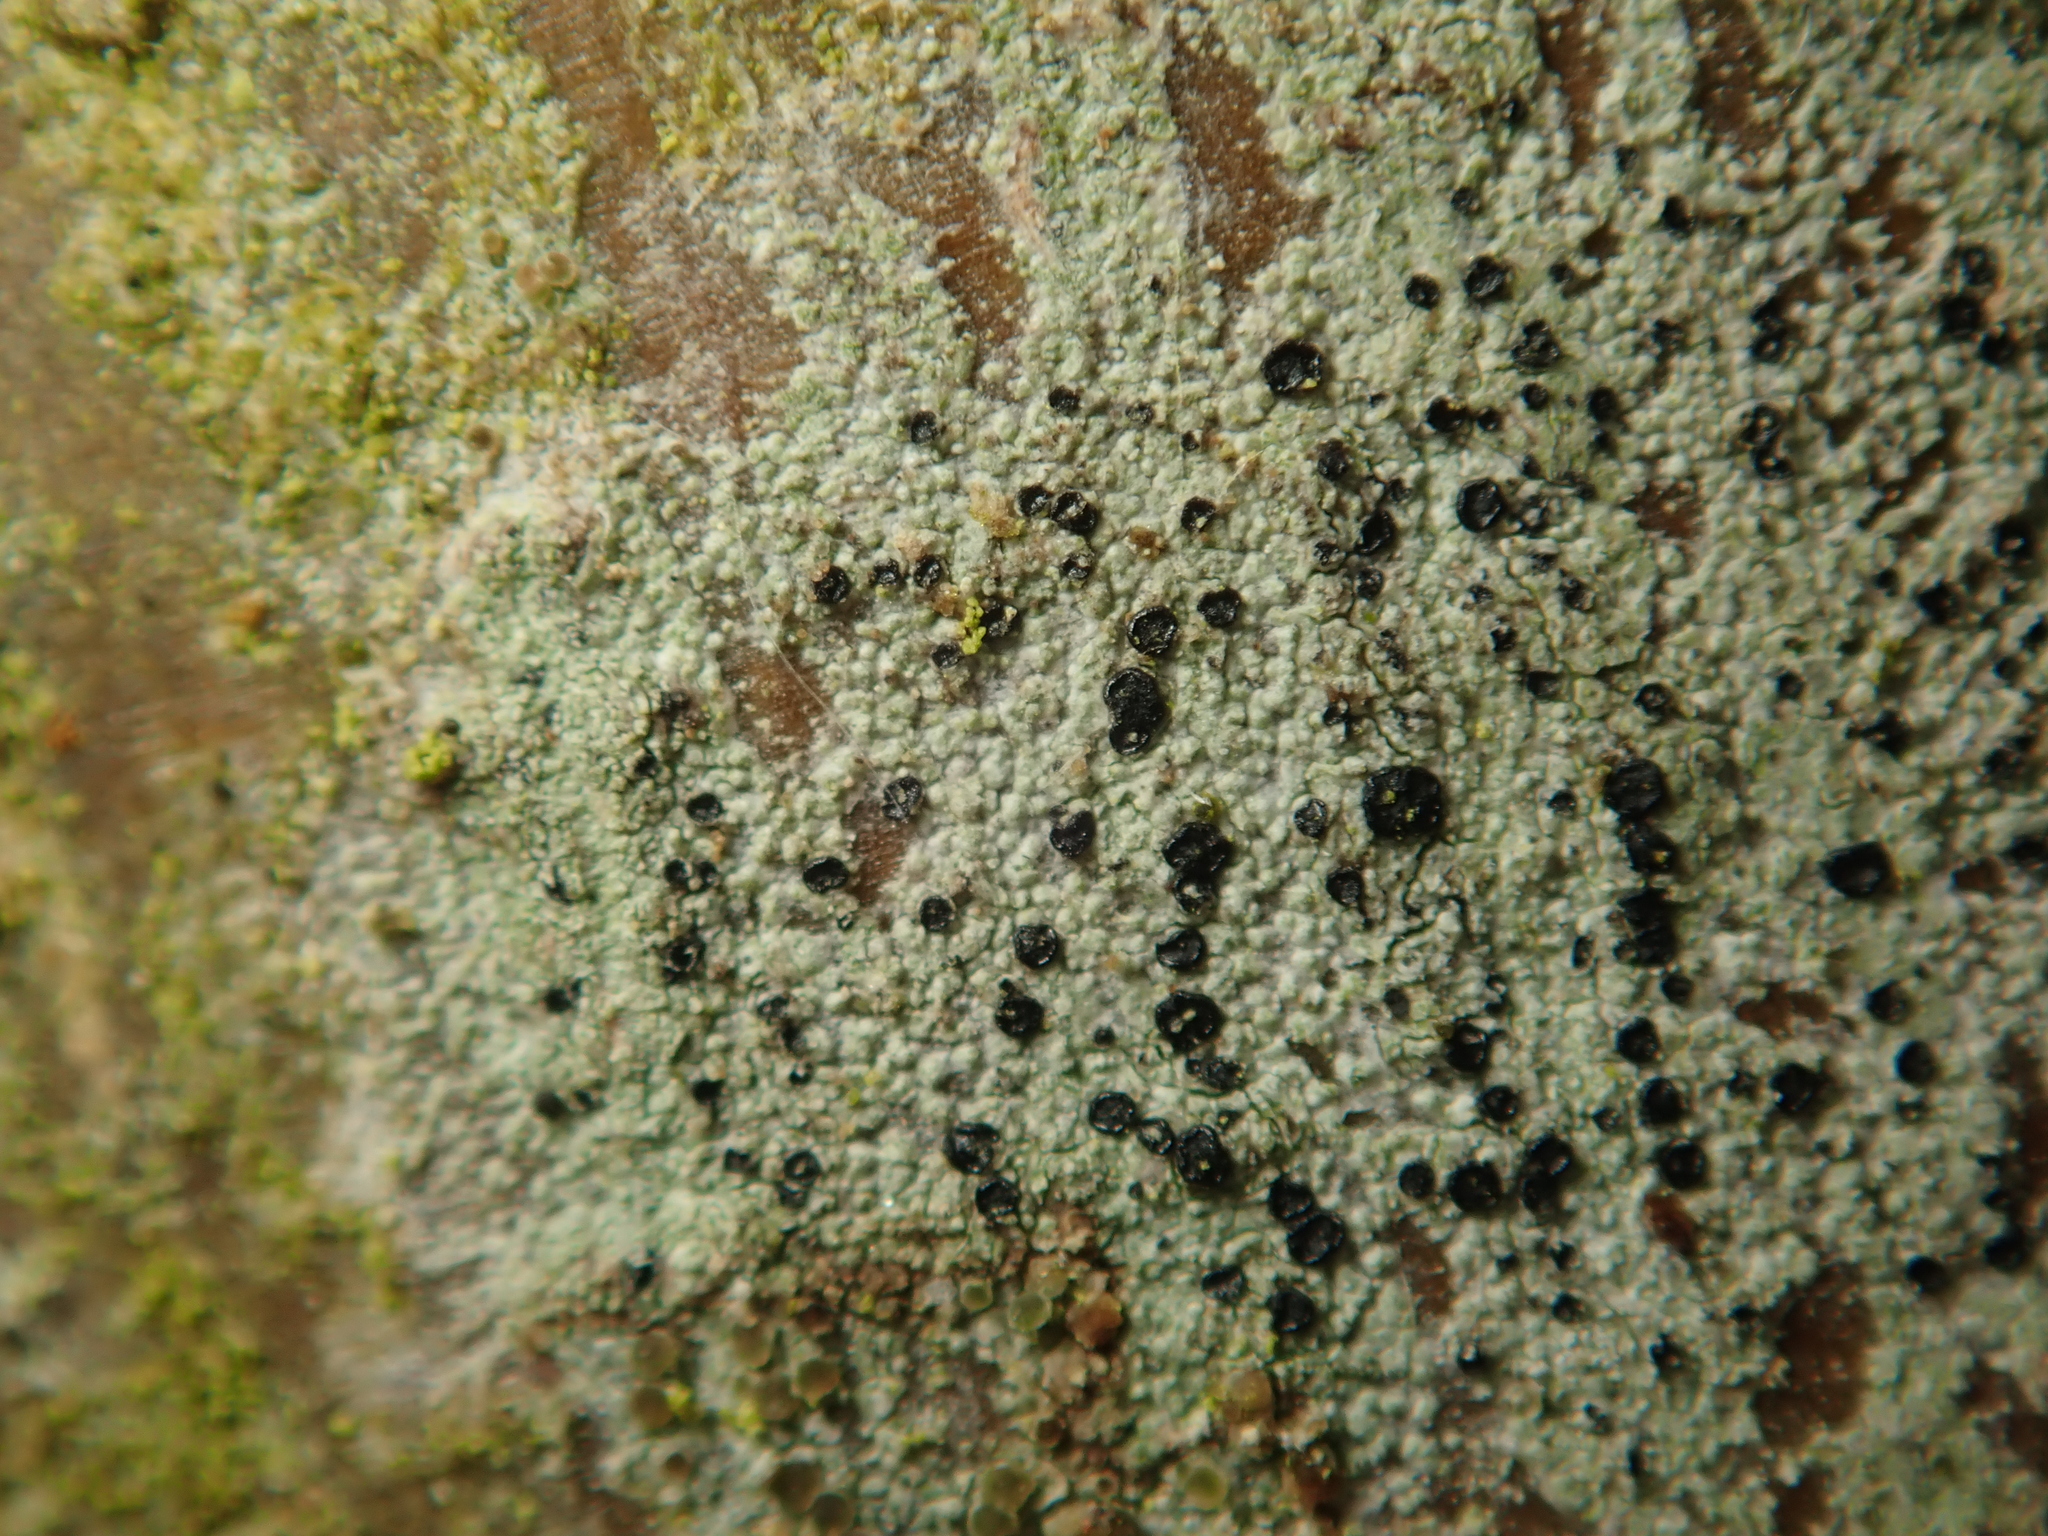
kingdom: Fungi
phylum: Ascomycota
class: Lecanoromycetes
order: Lecanorales
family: Lecanoraceae
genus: Lecidella
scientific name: Lecidella elaeochroma
